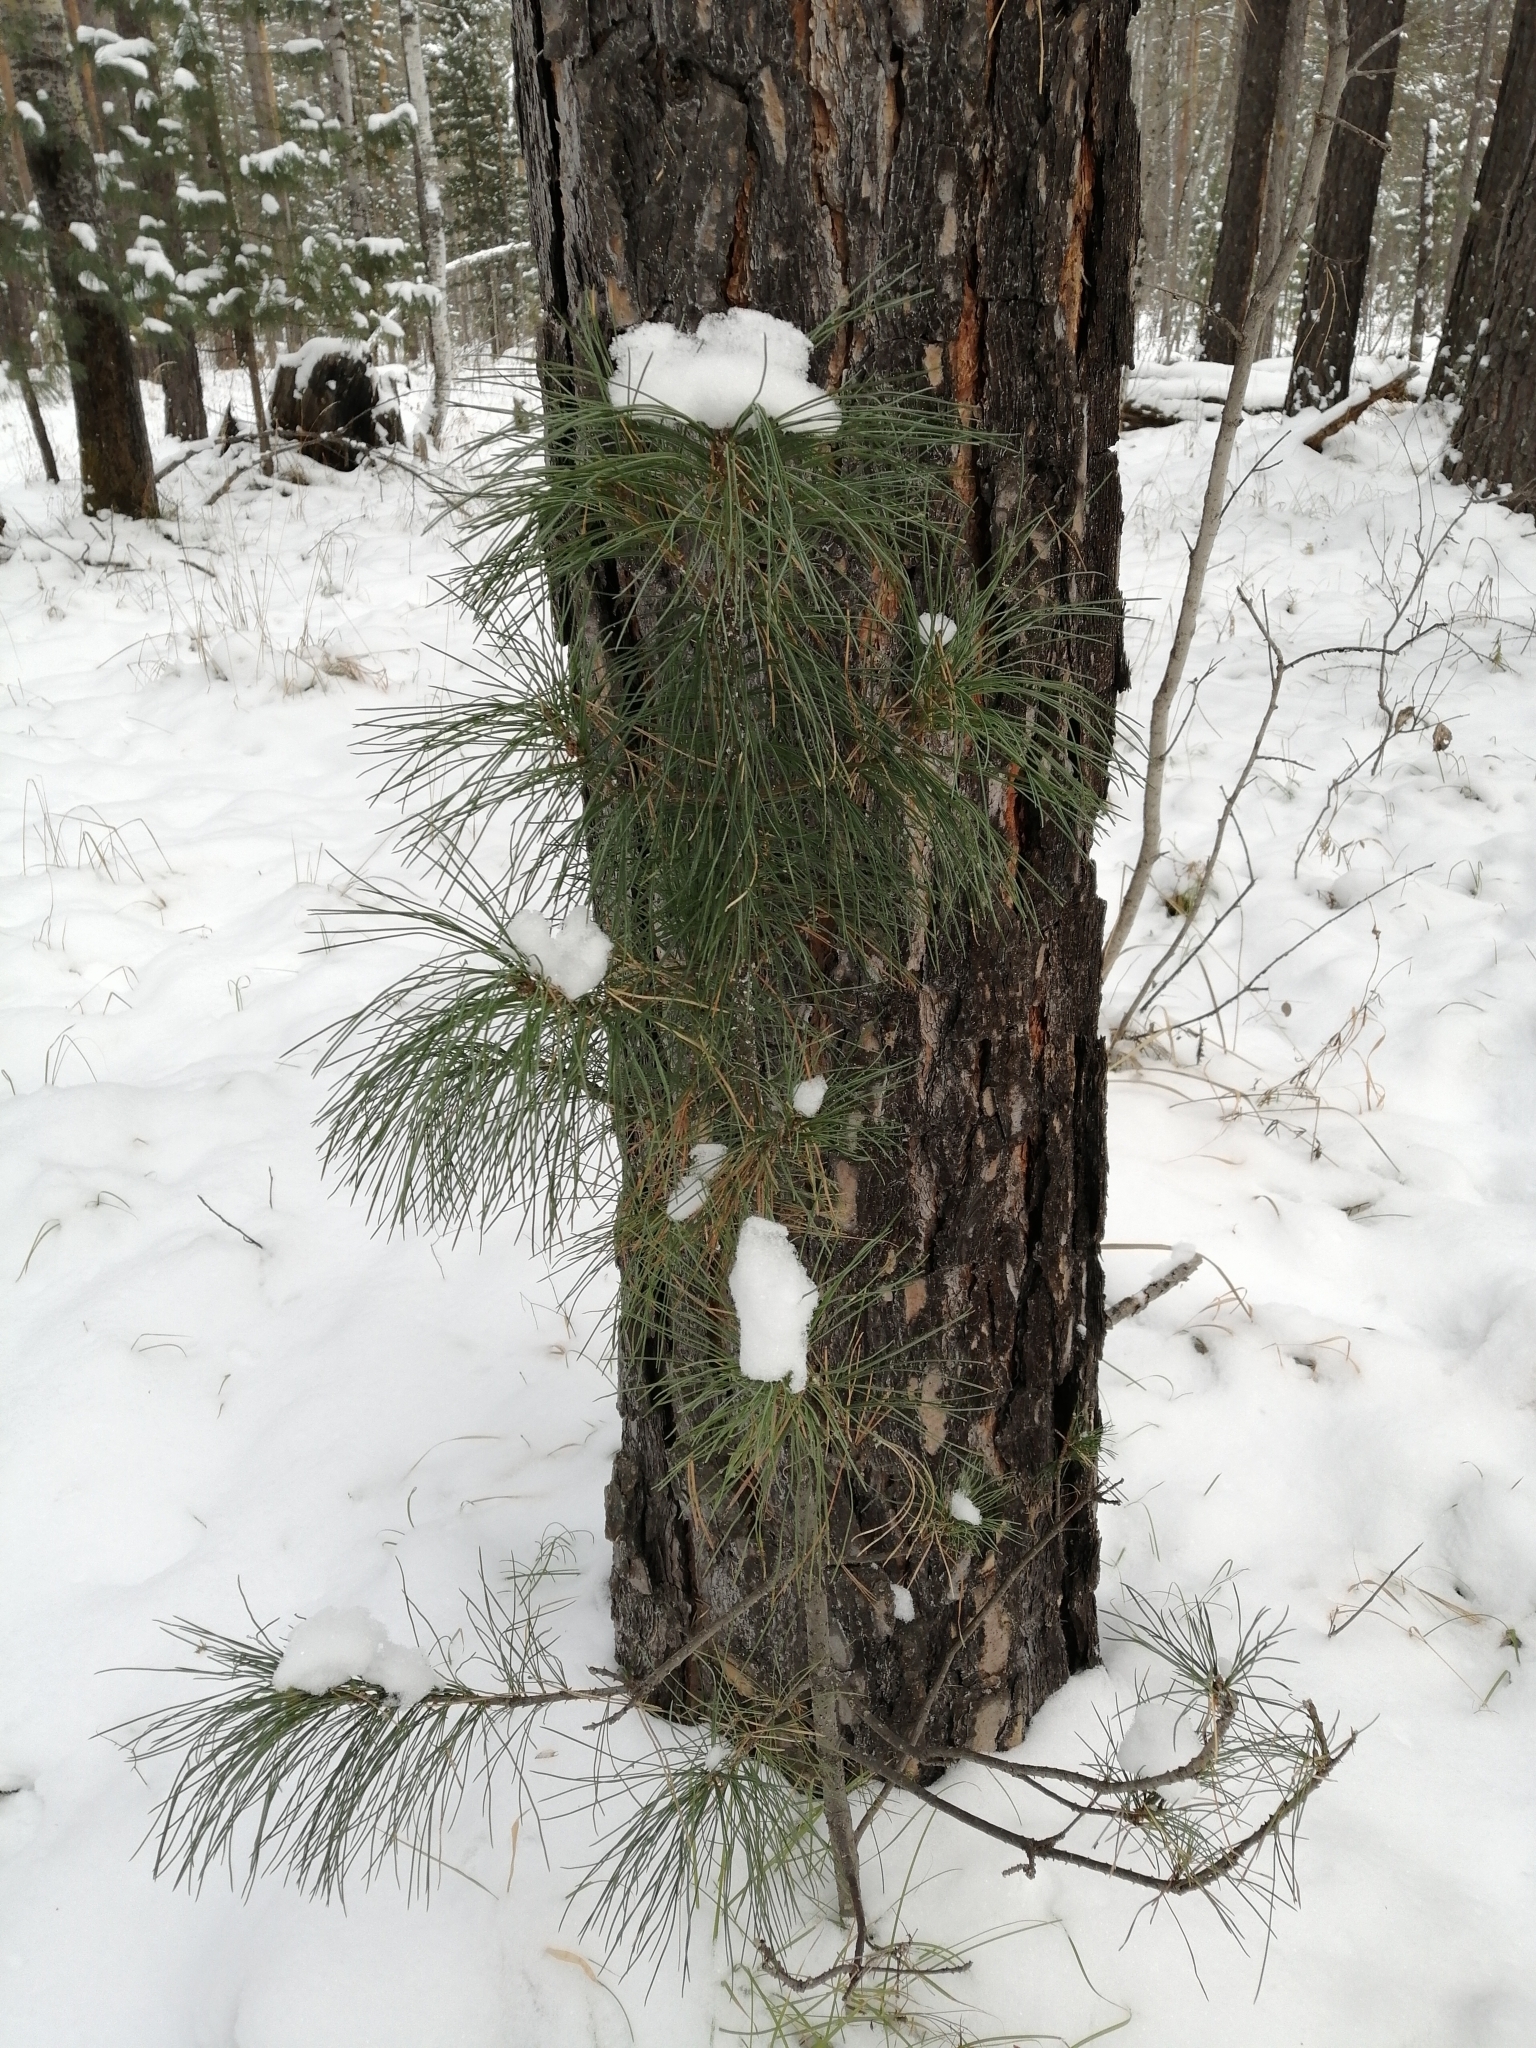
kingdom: Plantae
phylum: Tracheophyta
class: Pinopsida
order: Pinales
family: Pinaceae
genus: Pinus
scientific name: Pinus sibirica
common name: Siberian pine
